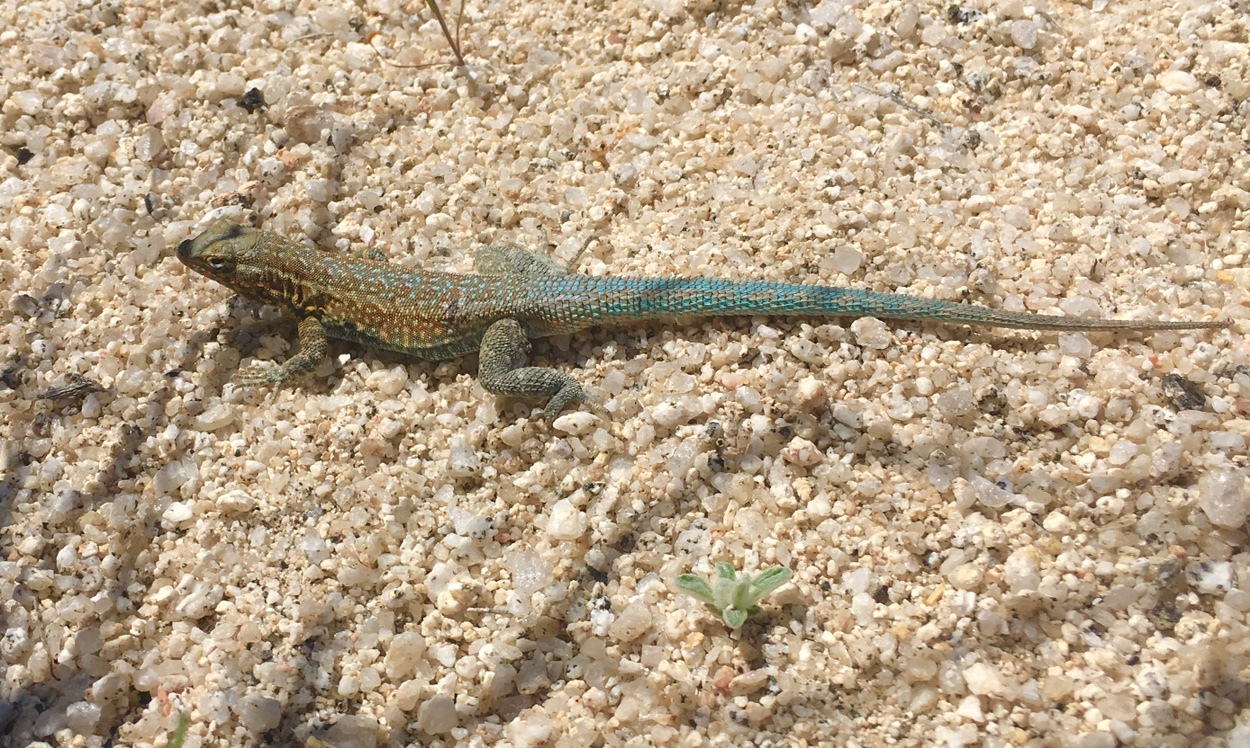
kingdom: Animalia
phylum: Chordata
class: Squamata
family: Phrynosomatidae
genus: Uta
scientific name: Uta stansburiana
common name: Side-blotched lizard
